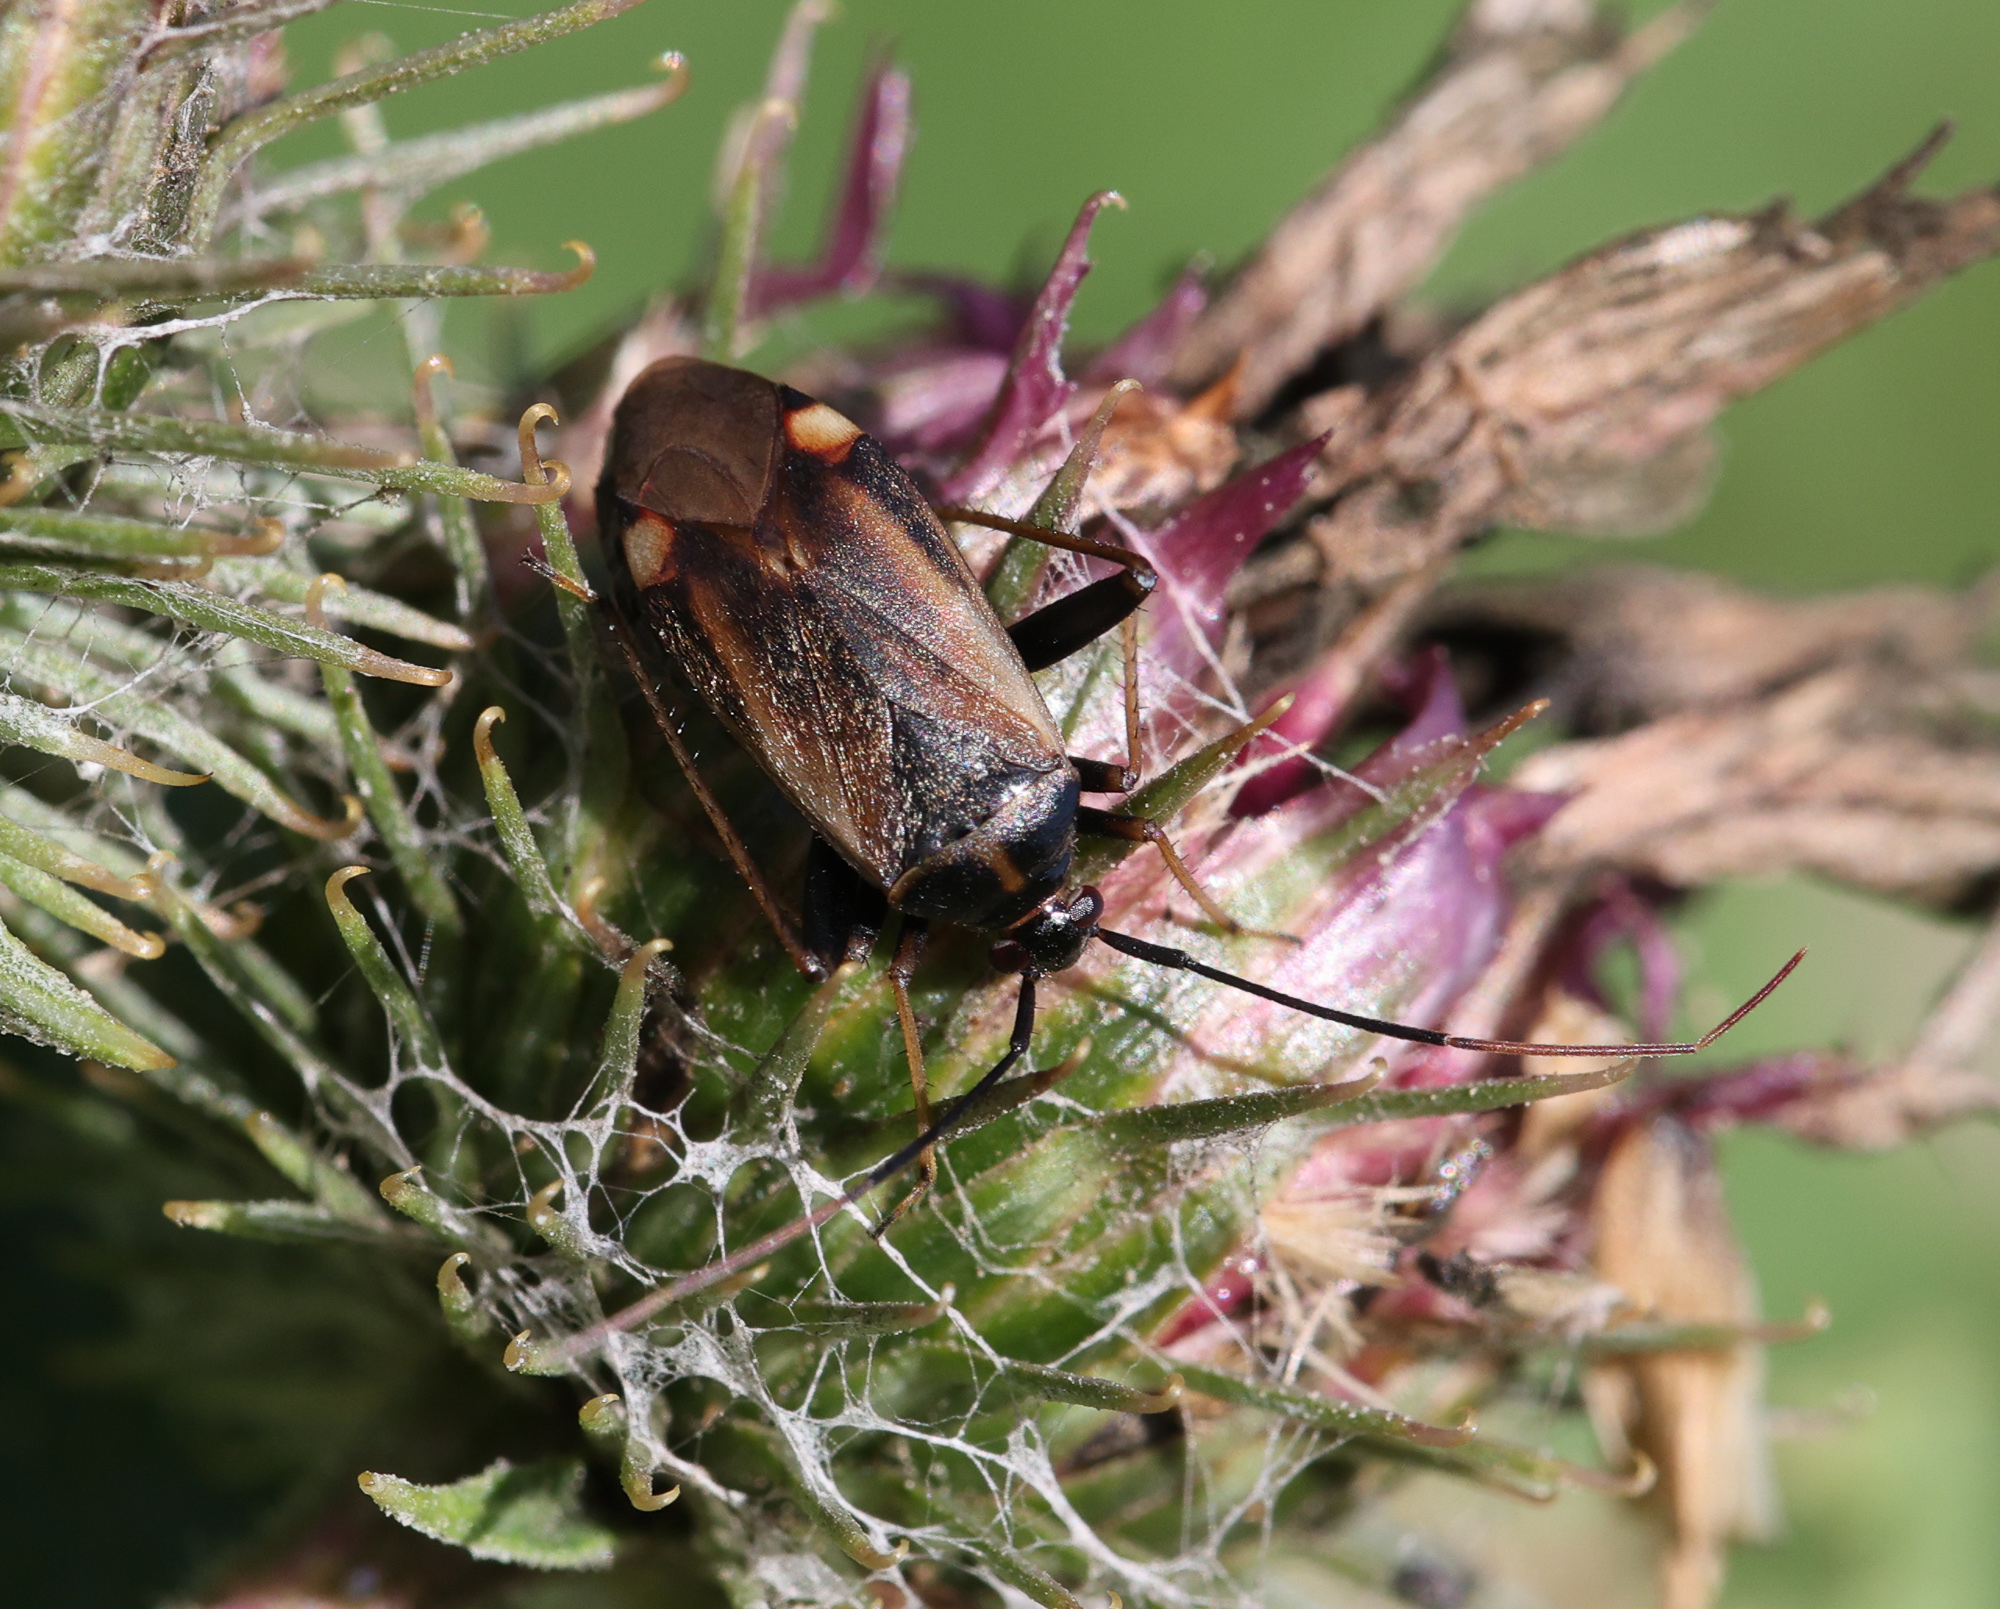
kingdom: Animalia
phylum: Arthropoda
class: Insecta
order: Hemiptera
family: Miridae
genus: Adelphocoris
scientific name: Adelphocoris seticornis
